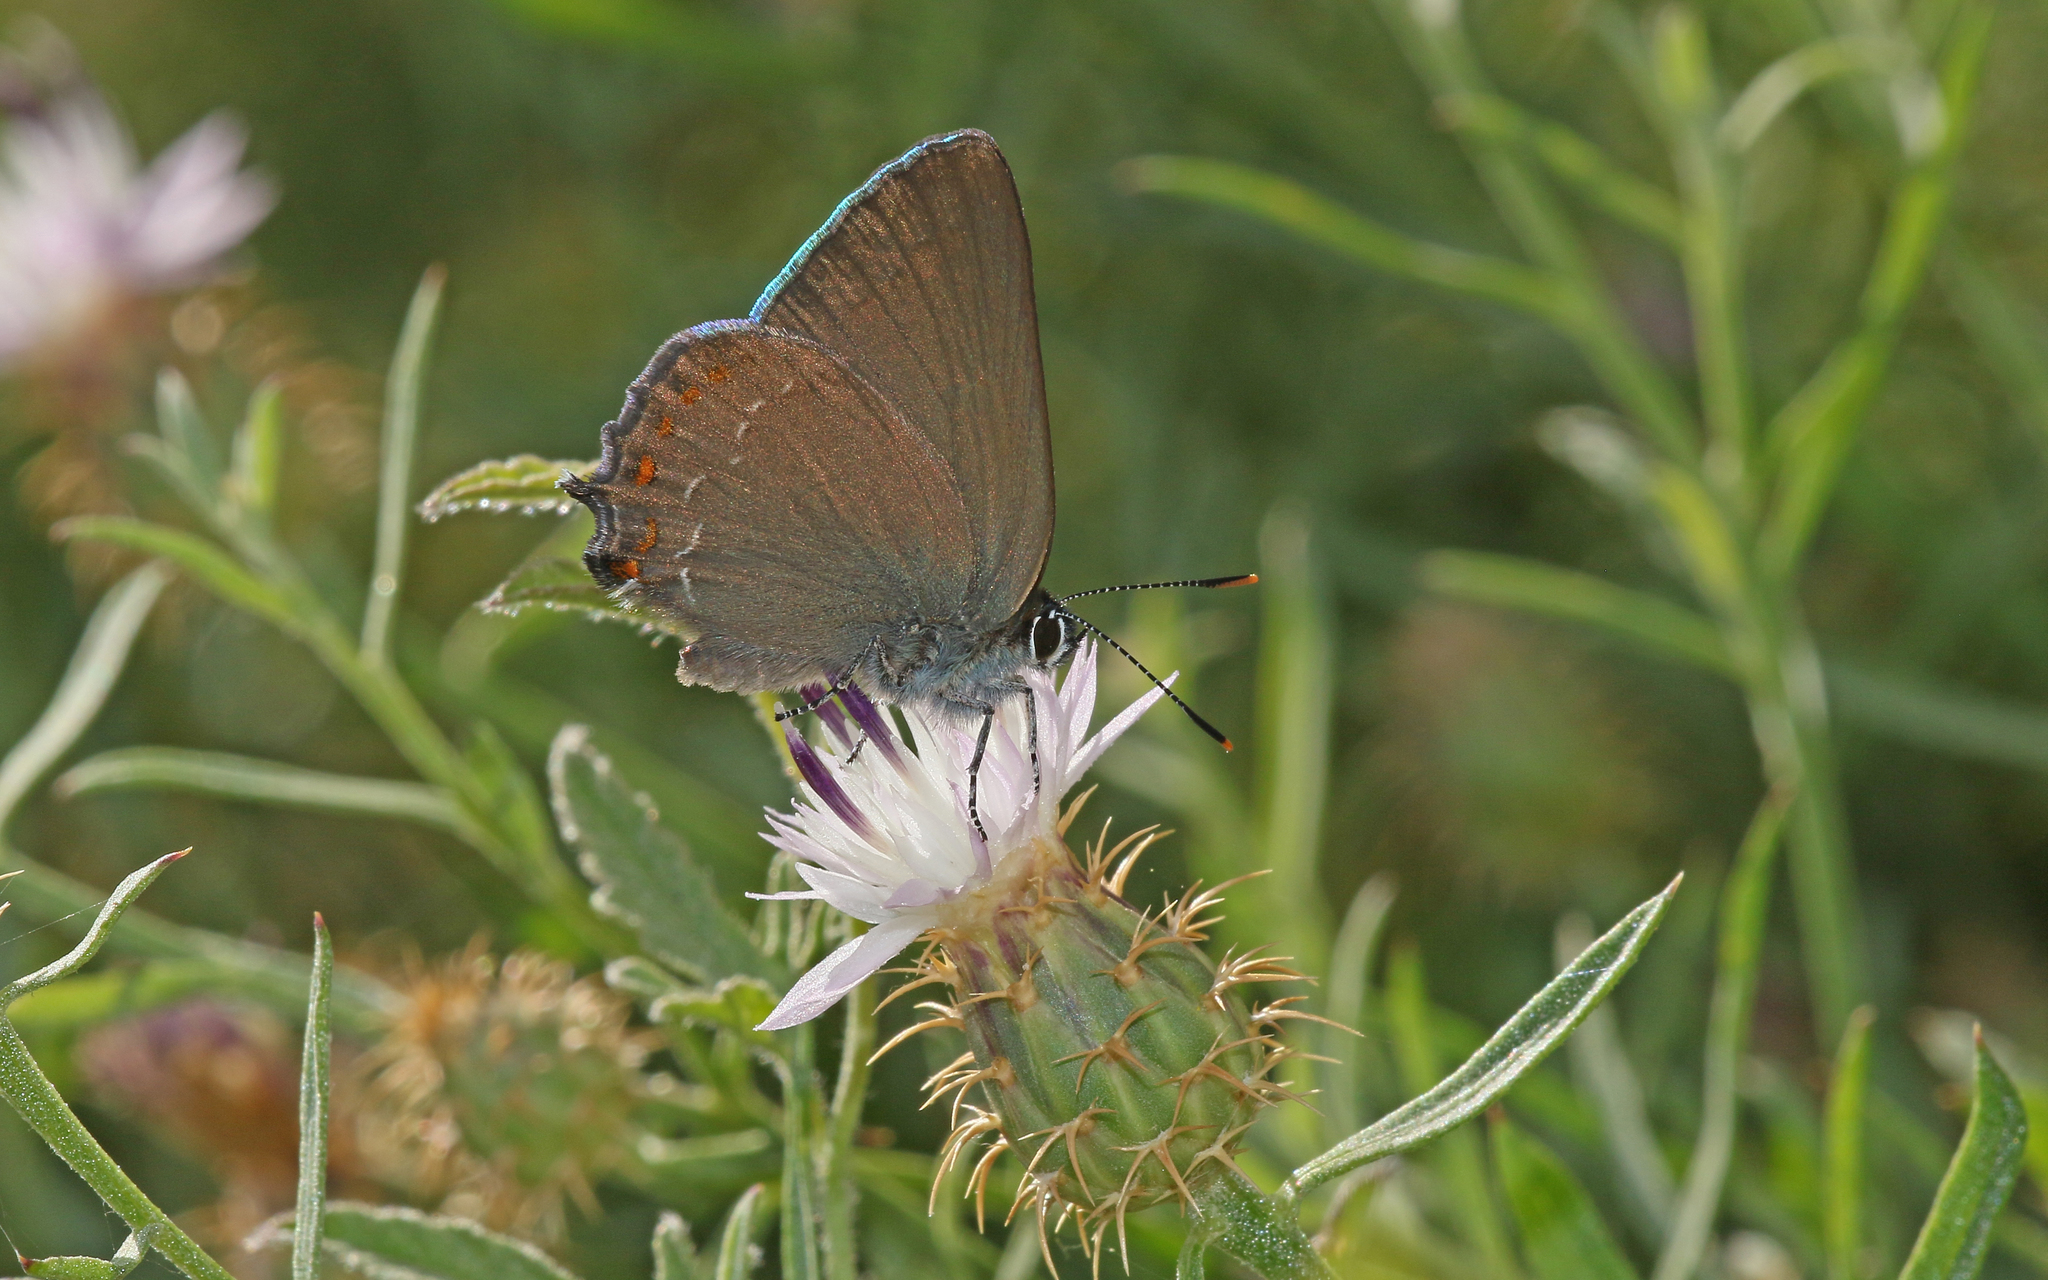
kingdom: Animalia
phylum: Arthropoda
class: Insecta
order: Lepidoptera
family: Lycaenidae
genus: Fixsenia
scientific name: Fixsenia esculi
